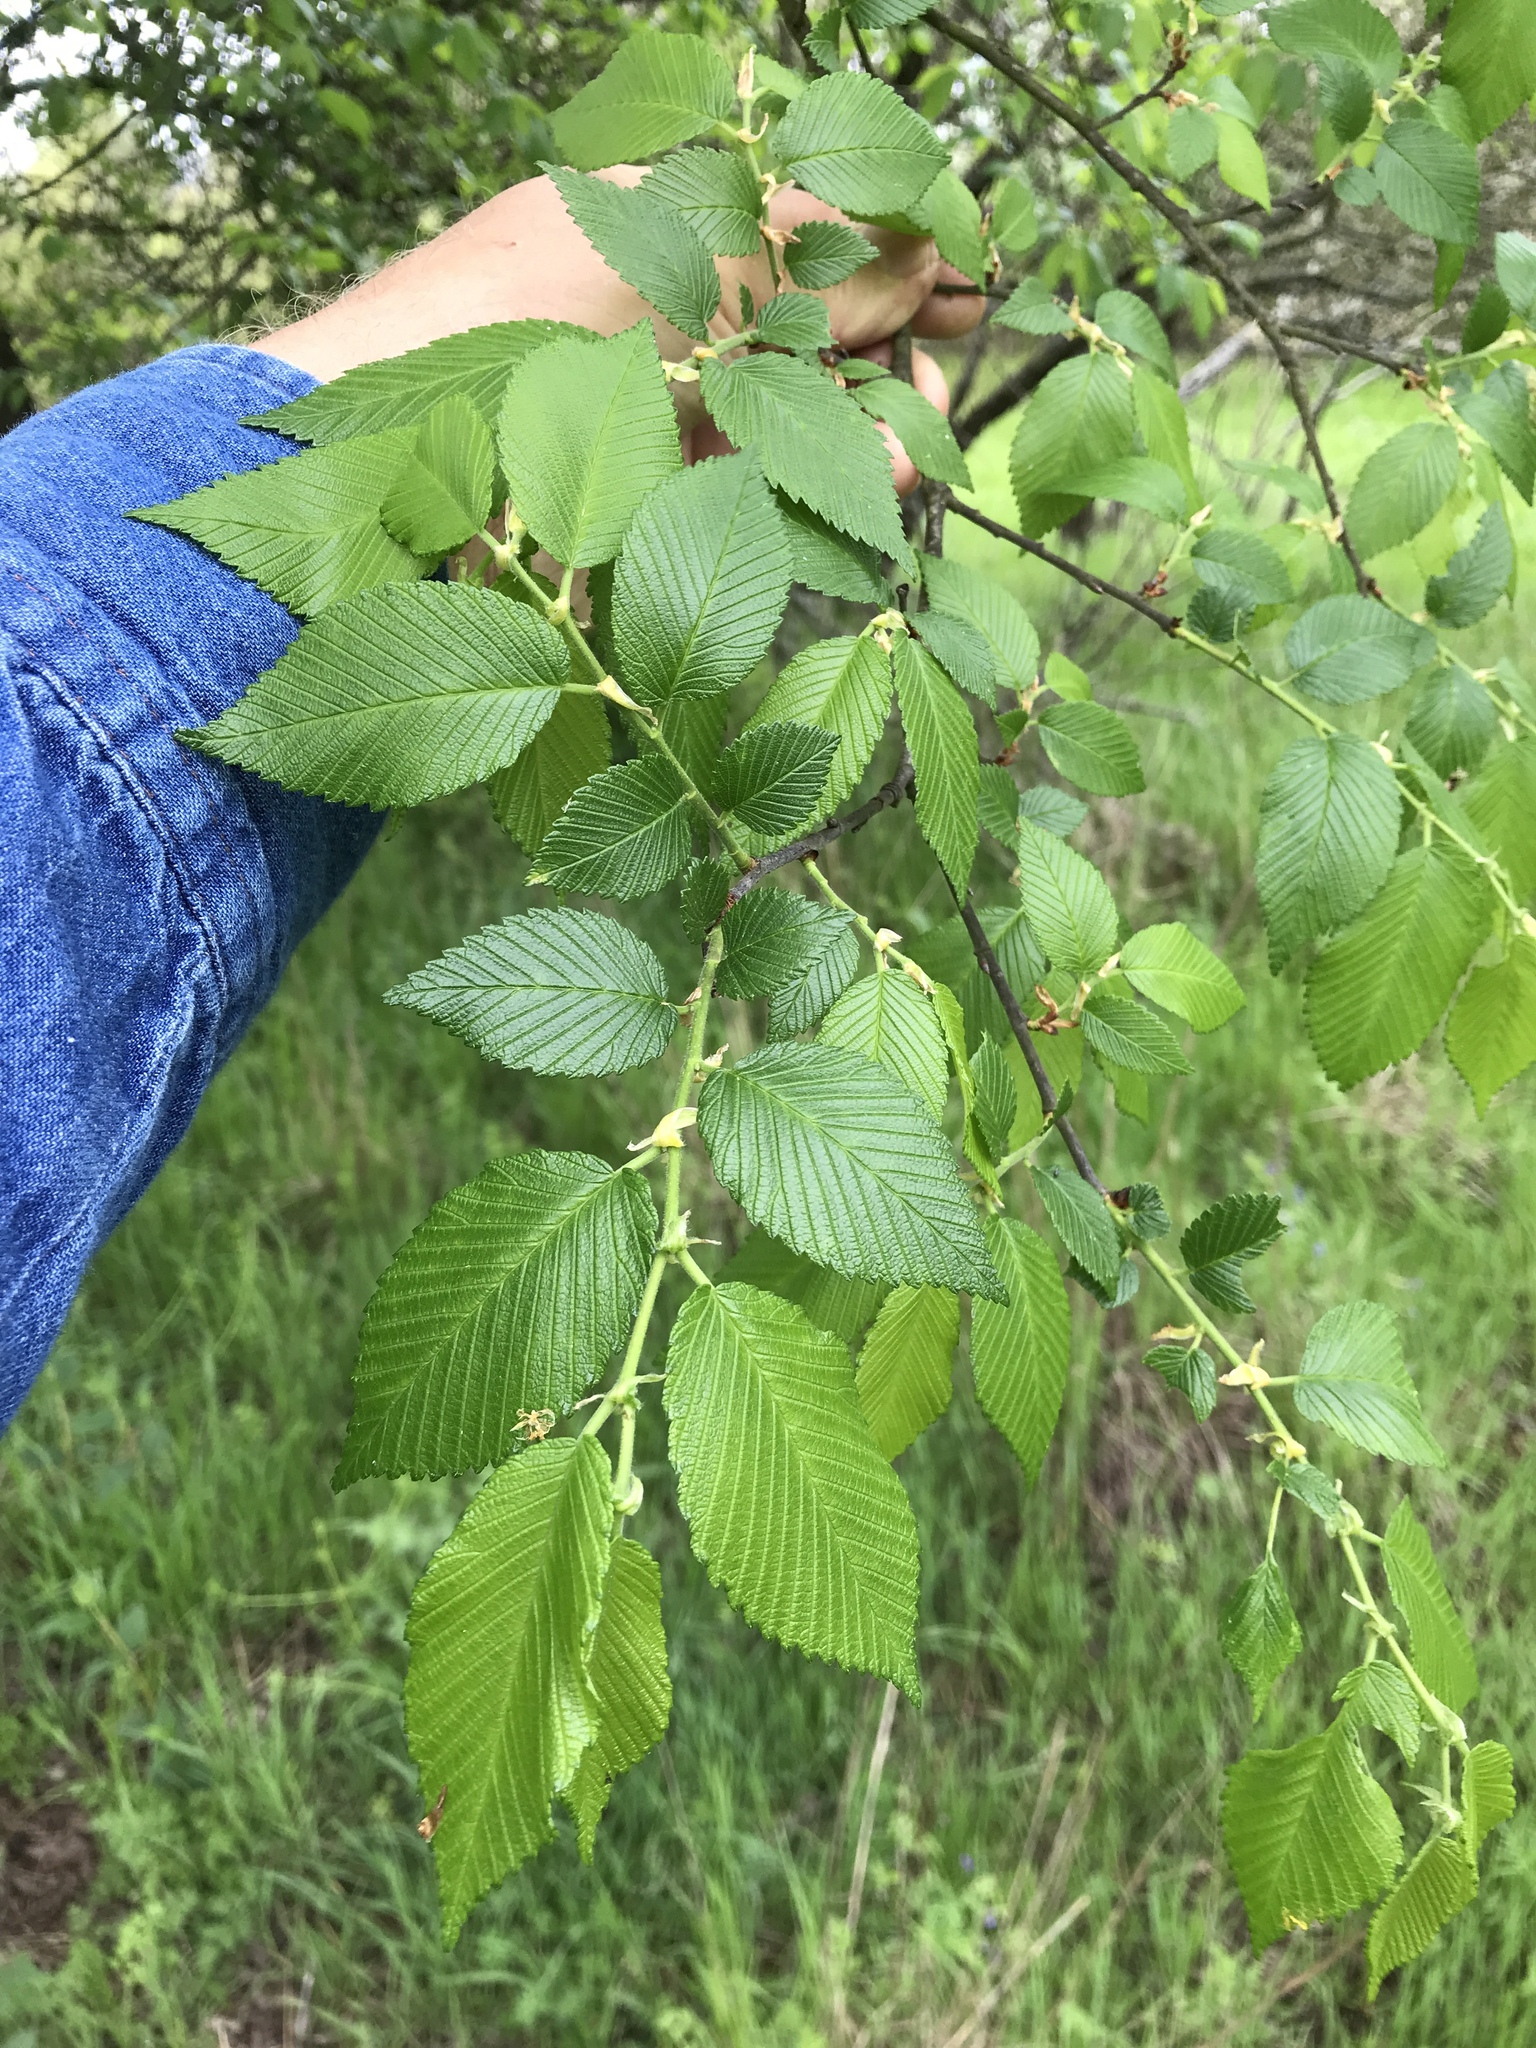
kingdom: Plantae
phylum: Tracheophyta
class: Magnoliopsida
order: Rosales
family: Ulmaceae
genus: Ulmus
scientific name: Ulmus americana
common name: American elm
